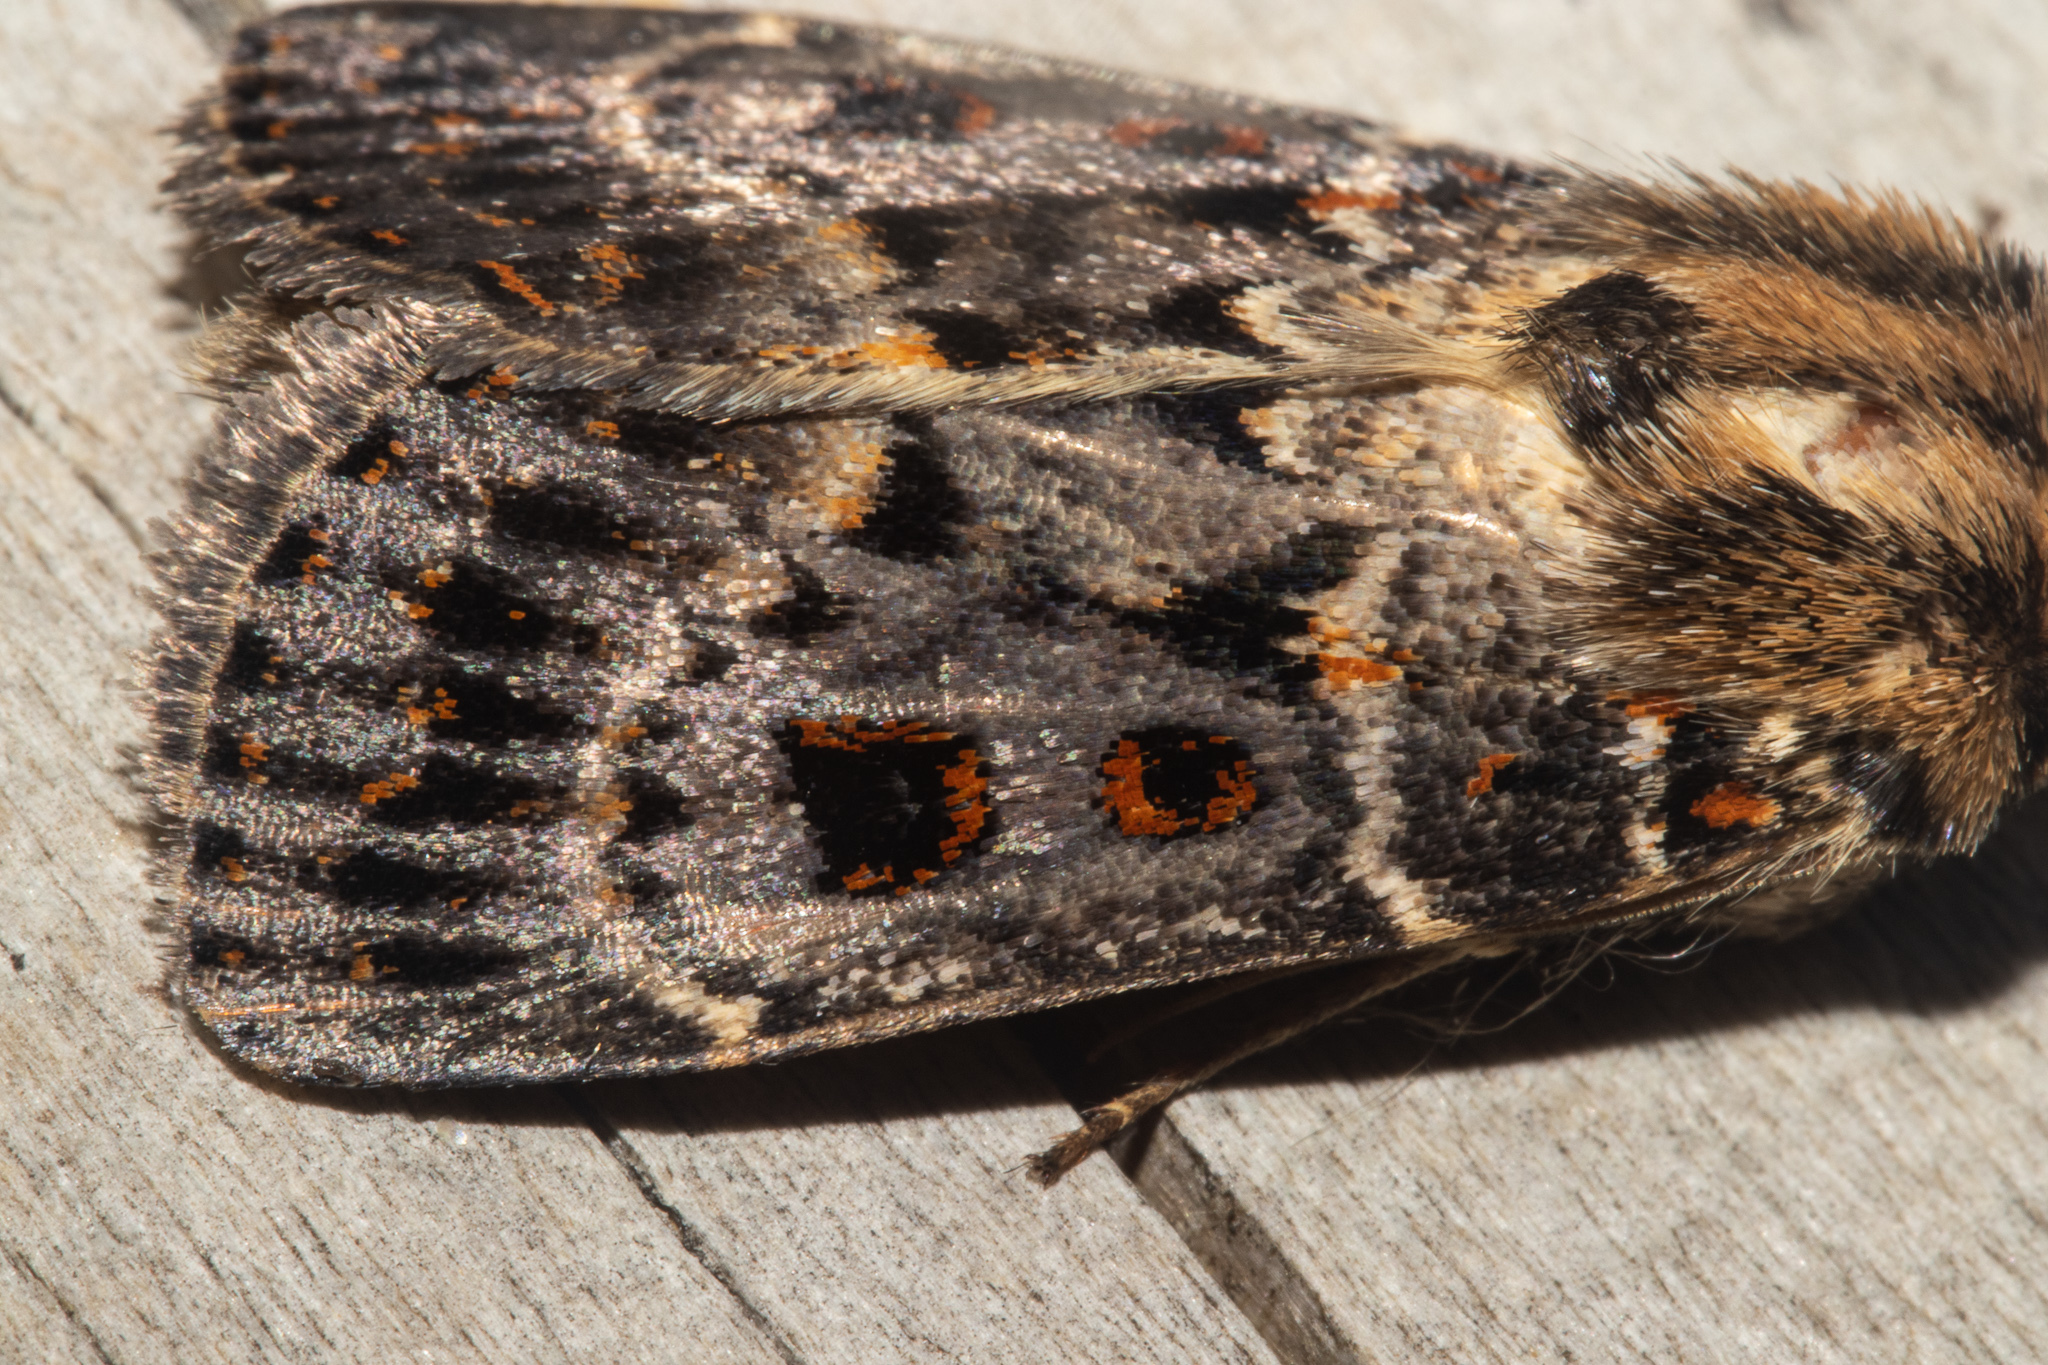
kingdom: Animalia
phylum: Arthropoda
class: Insecta
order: Lepidoptera
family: Noctuidae
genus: Proteuxoa
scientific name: Proteuxoa sanguinipuncta
